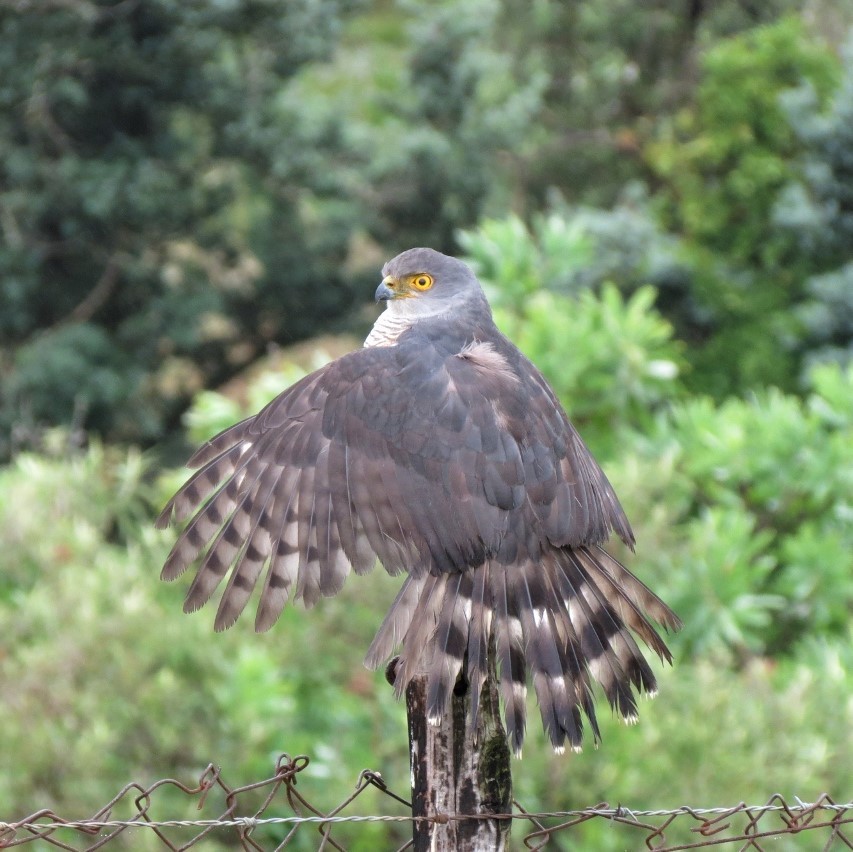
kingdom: Animalia
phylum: Chordata
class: Aves
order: Accipitriformes
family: Accipitridae
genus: Accipiter
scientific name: Accipiter tachiro
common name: African goshawk
